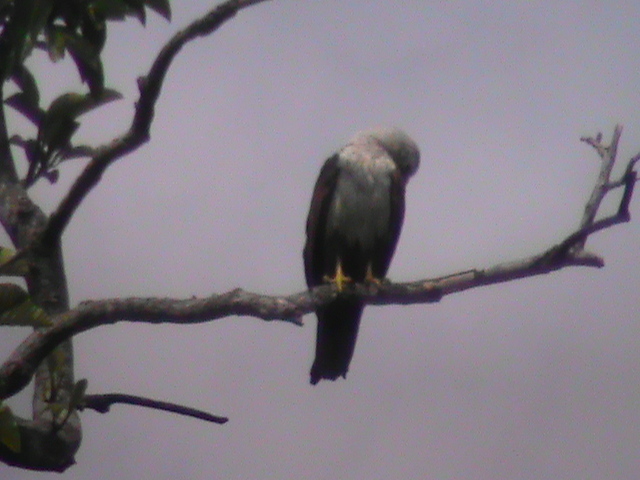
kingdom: Animalia
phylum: Chordata
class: Aves
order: Accipitriformes
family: Accipitridae
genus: Haliastur
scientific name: Haliastur indus
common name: Brahminy kite
